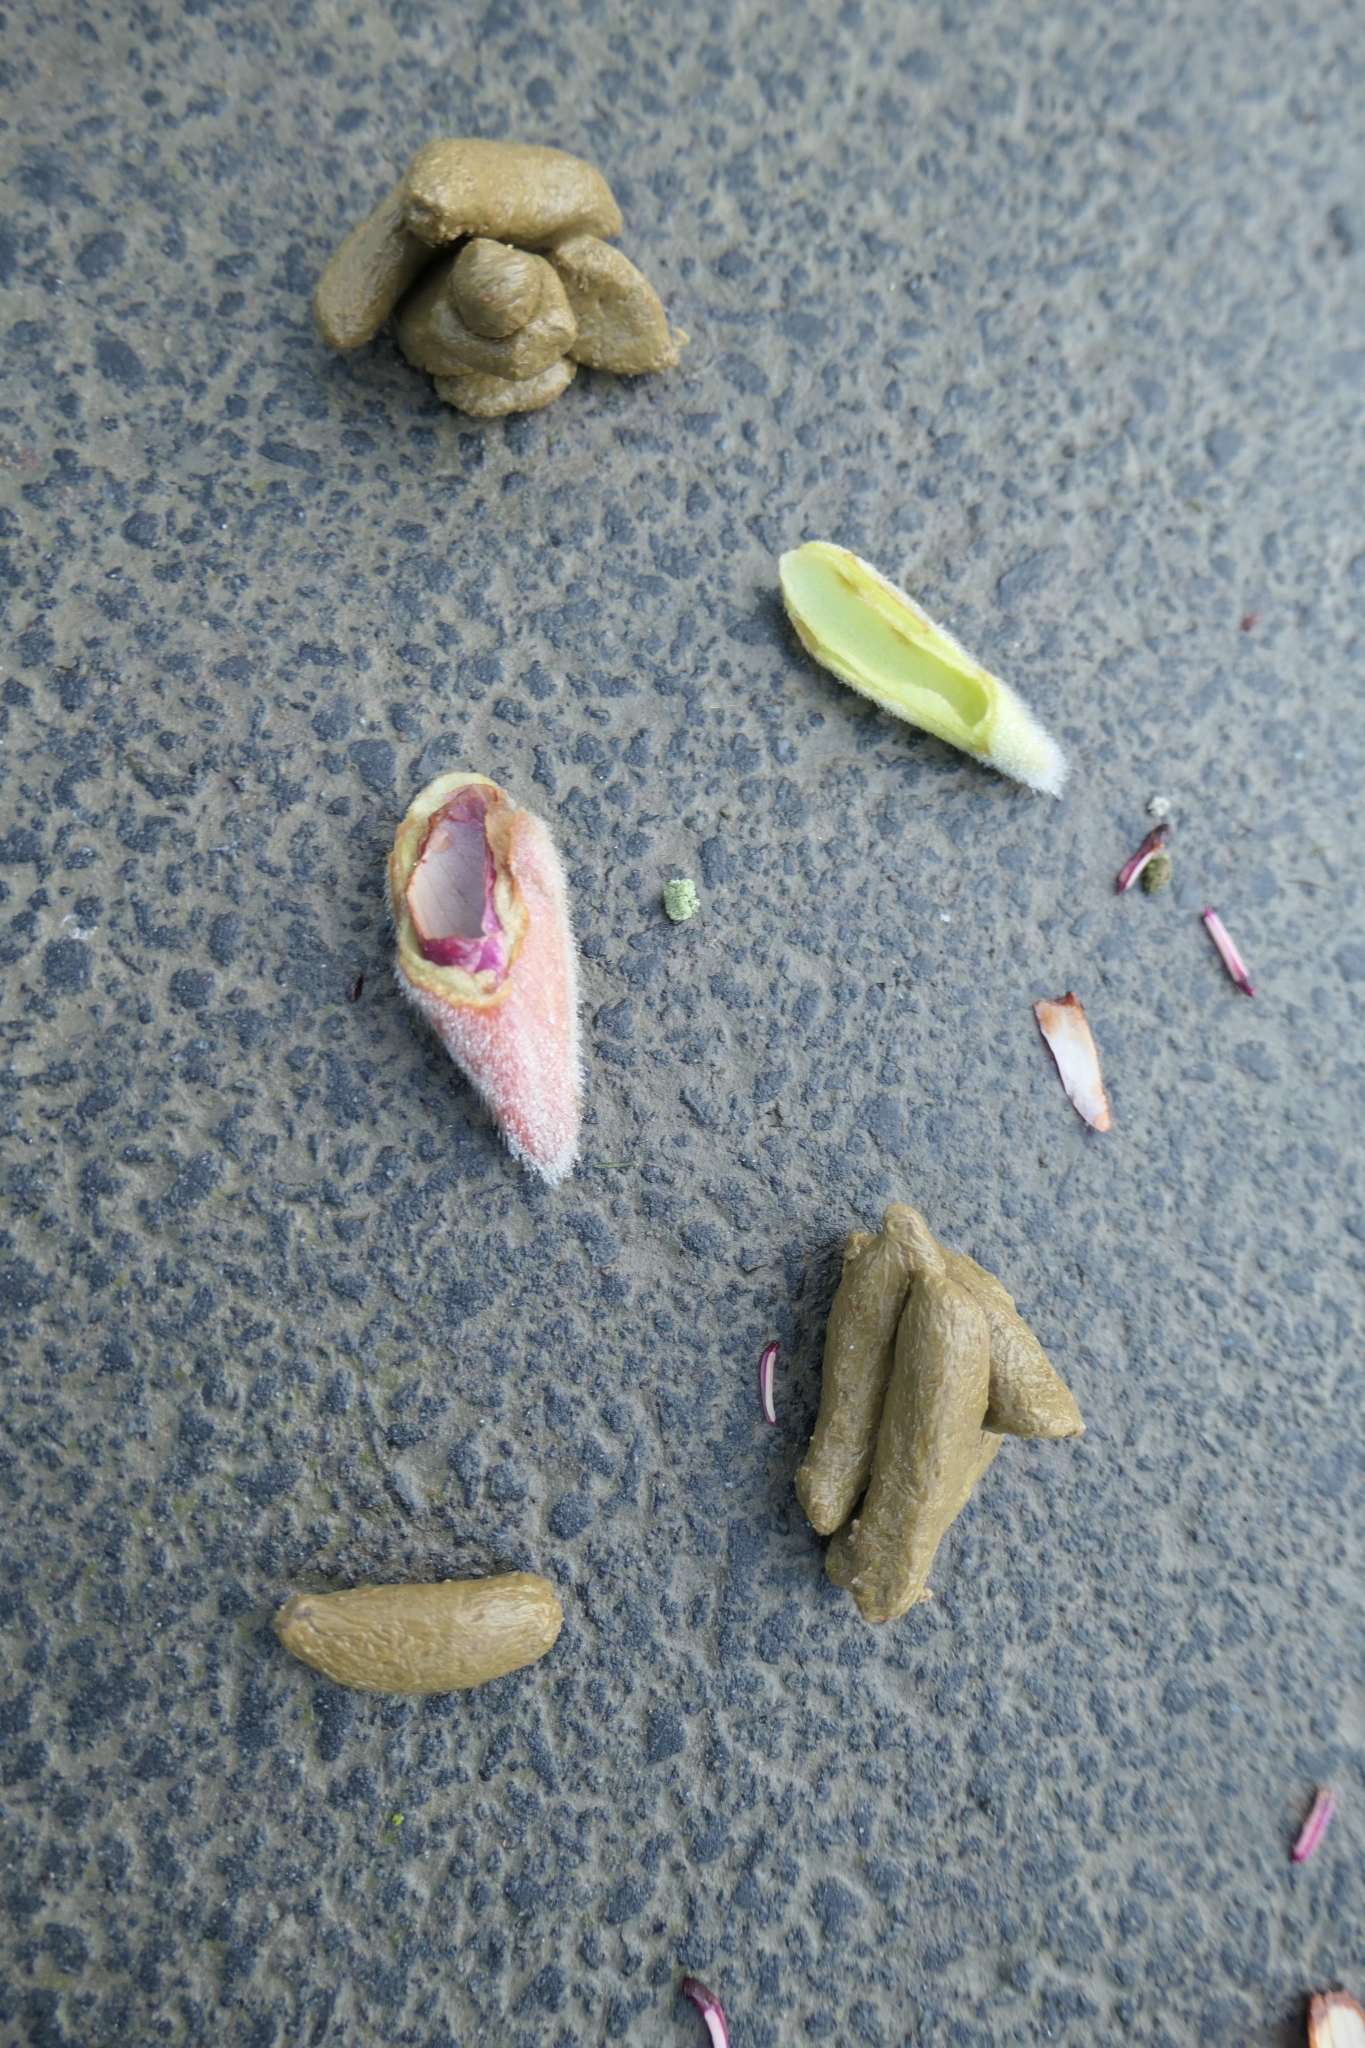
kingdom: Animalia
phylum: Chordata
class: Mammalia
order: Diprotodontia
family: Phalangeridae
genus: Trichosurus
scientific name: Trichosurus vulpecula
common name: Common brushtail
